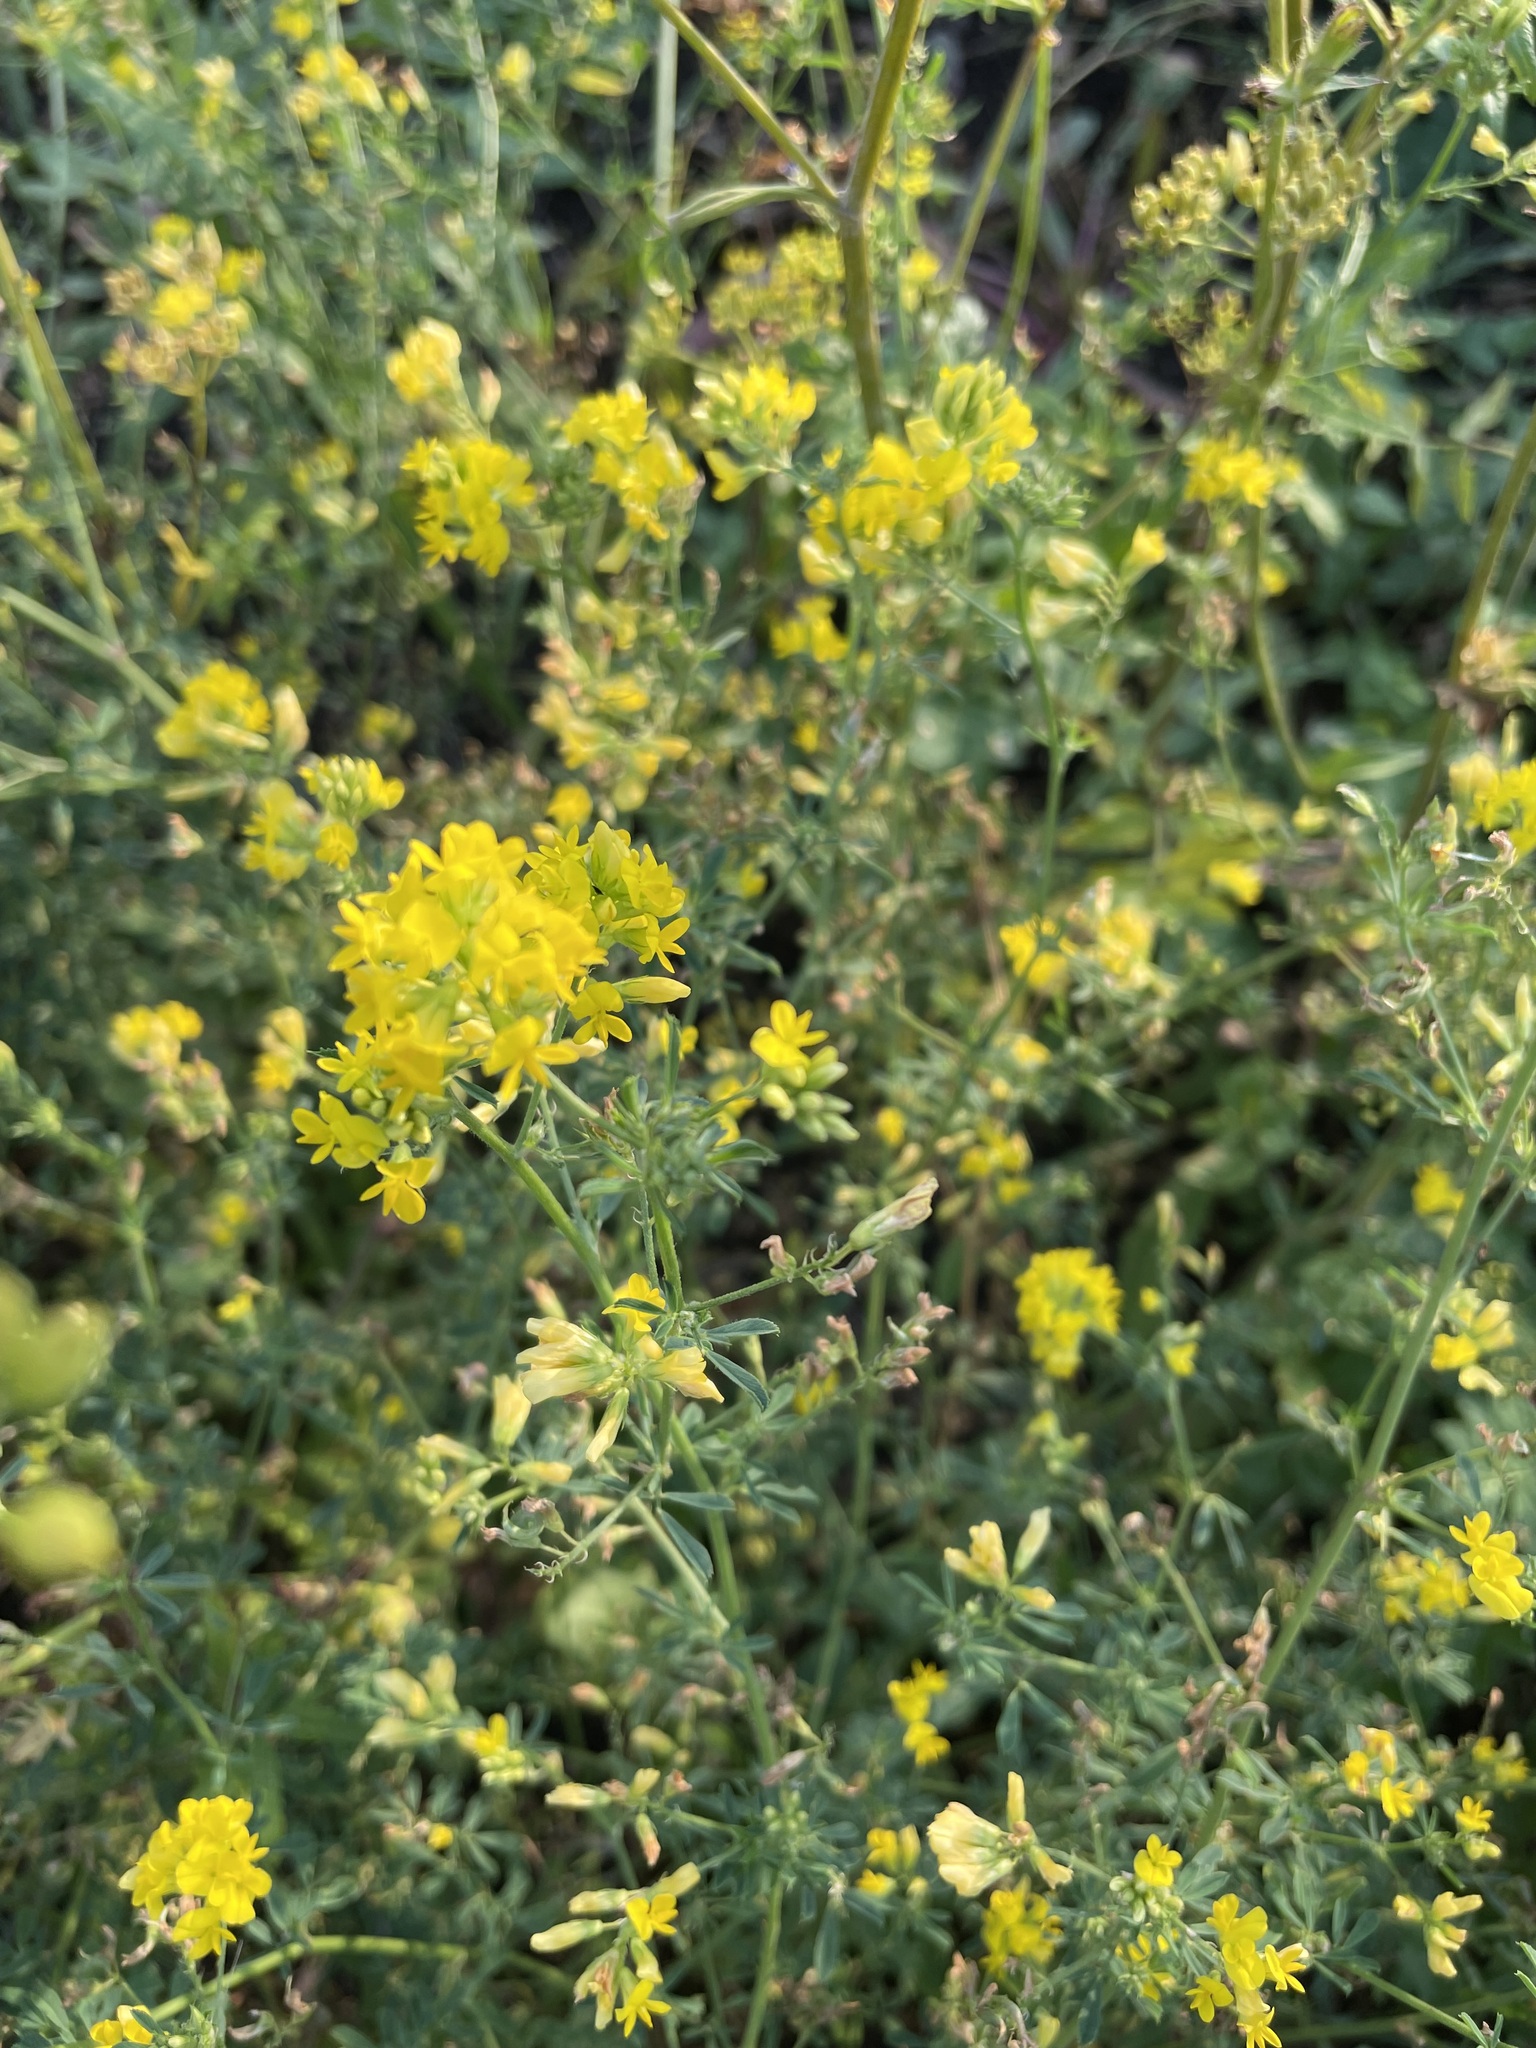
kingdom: Plantae
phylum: Tracheophyta
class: Magnoliopsida
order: Fabales
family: Fabaceae
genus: Medicago
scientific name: Medicago falcata
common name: Sickle medick
